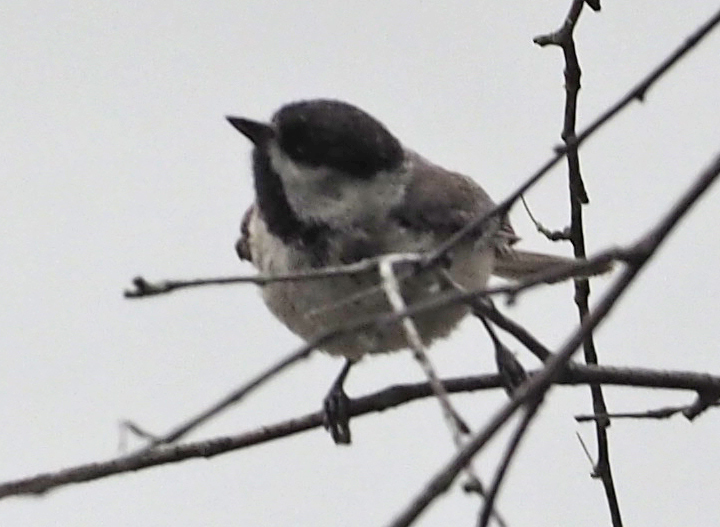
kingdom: Animalia
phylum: Chordata
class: Aves
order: Passeriformes
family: Paridae
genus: Poecile
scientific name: Poecile carolinensis
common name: Carolina chickadee
